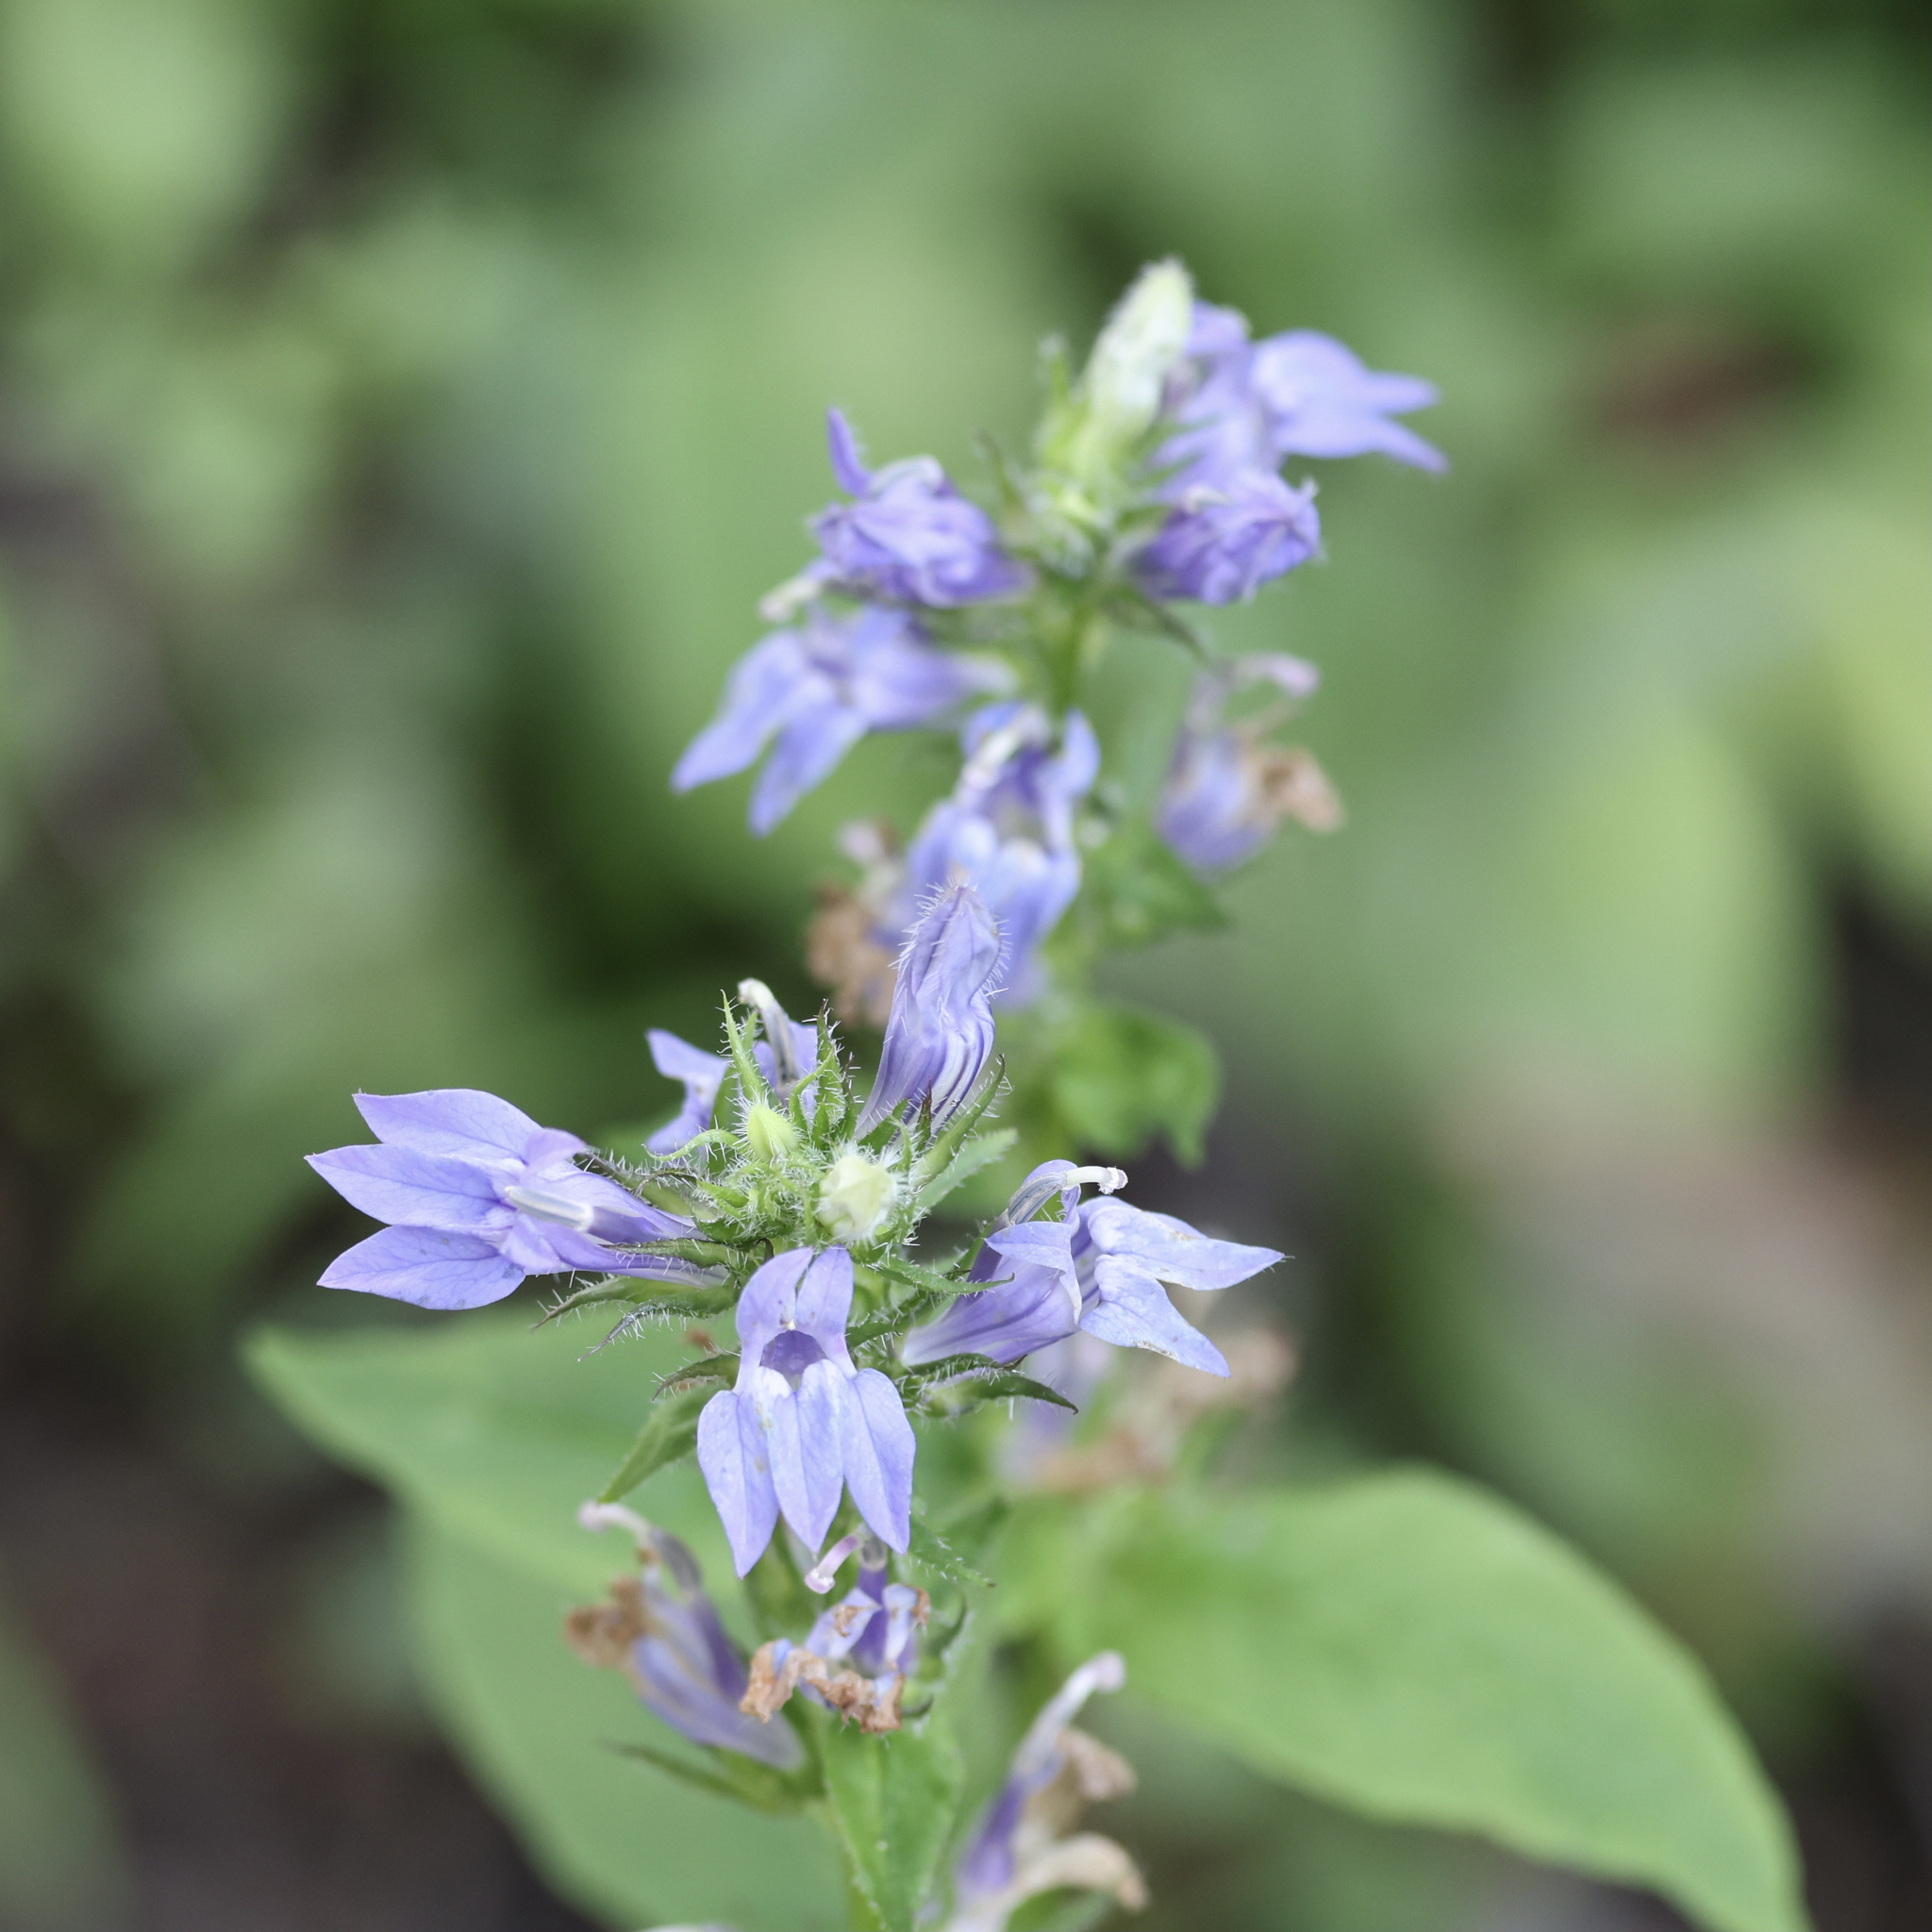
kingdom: Plantae
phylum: Tracheophyta
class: Magnoliopsida
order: Asterales
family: Campanulaceae
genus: Lobelia
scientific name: Lobelia siphilitica
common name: Great lobelia
